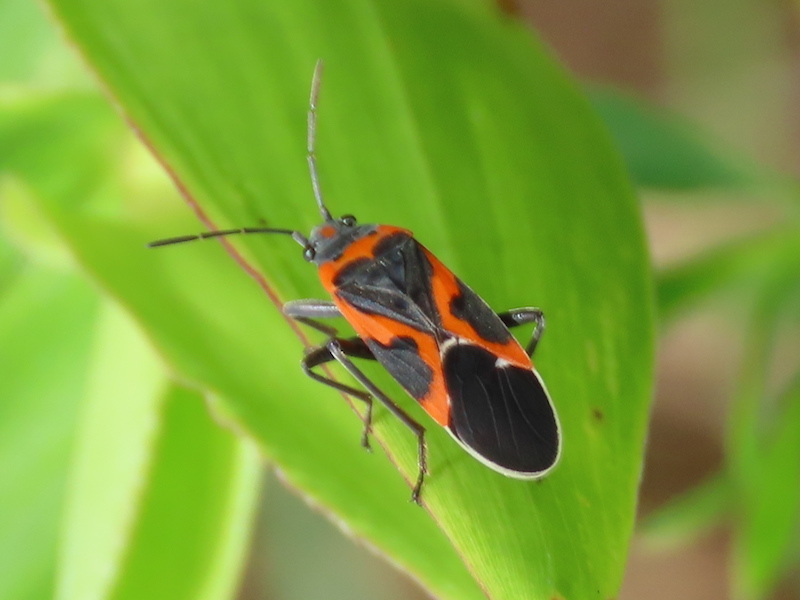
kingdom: Animalia
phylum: Arthropoda
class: Insecta
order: Hemiptera
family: Lygaeidae
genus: Lygaeus
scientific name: Lygaeus kalmii
